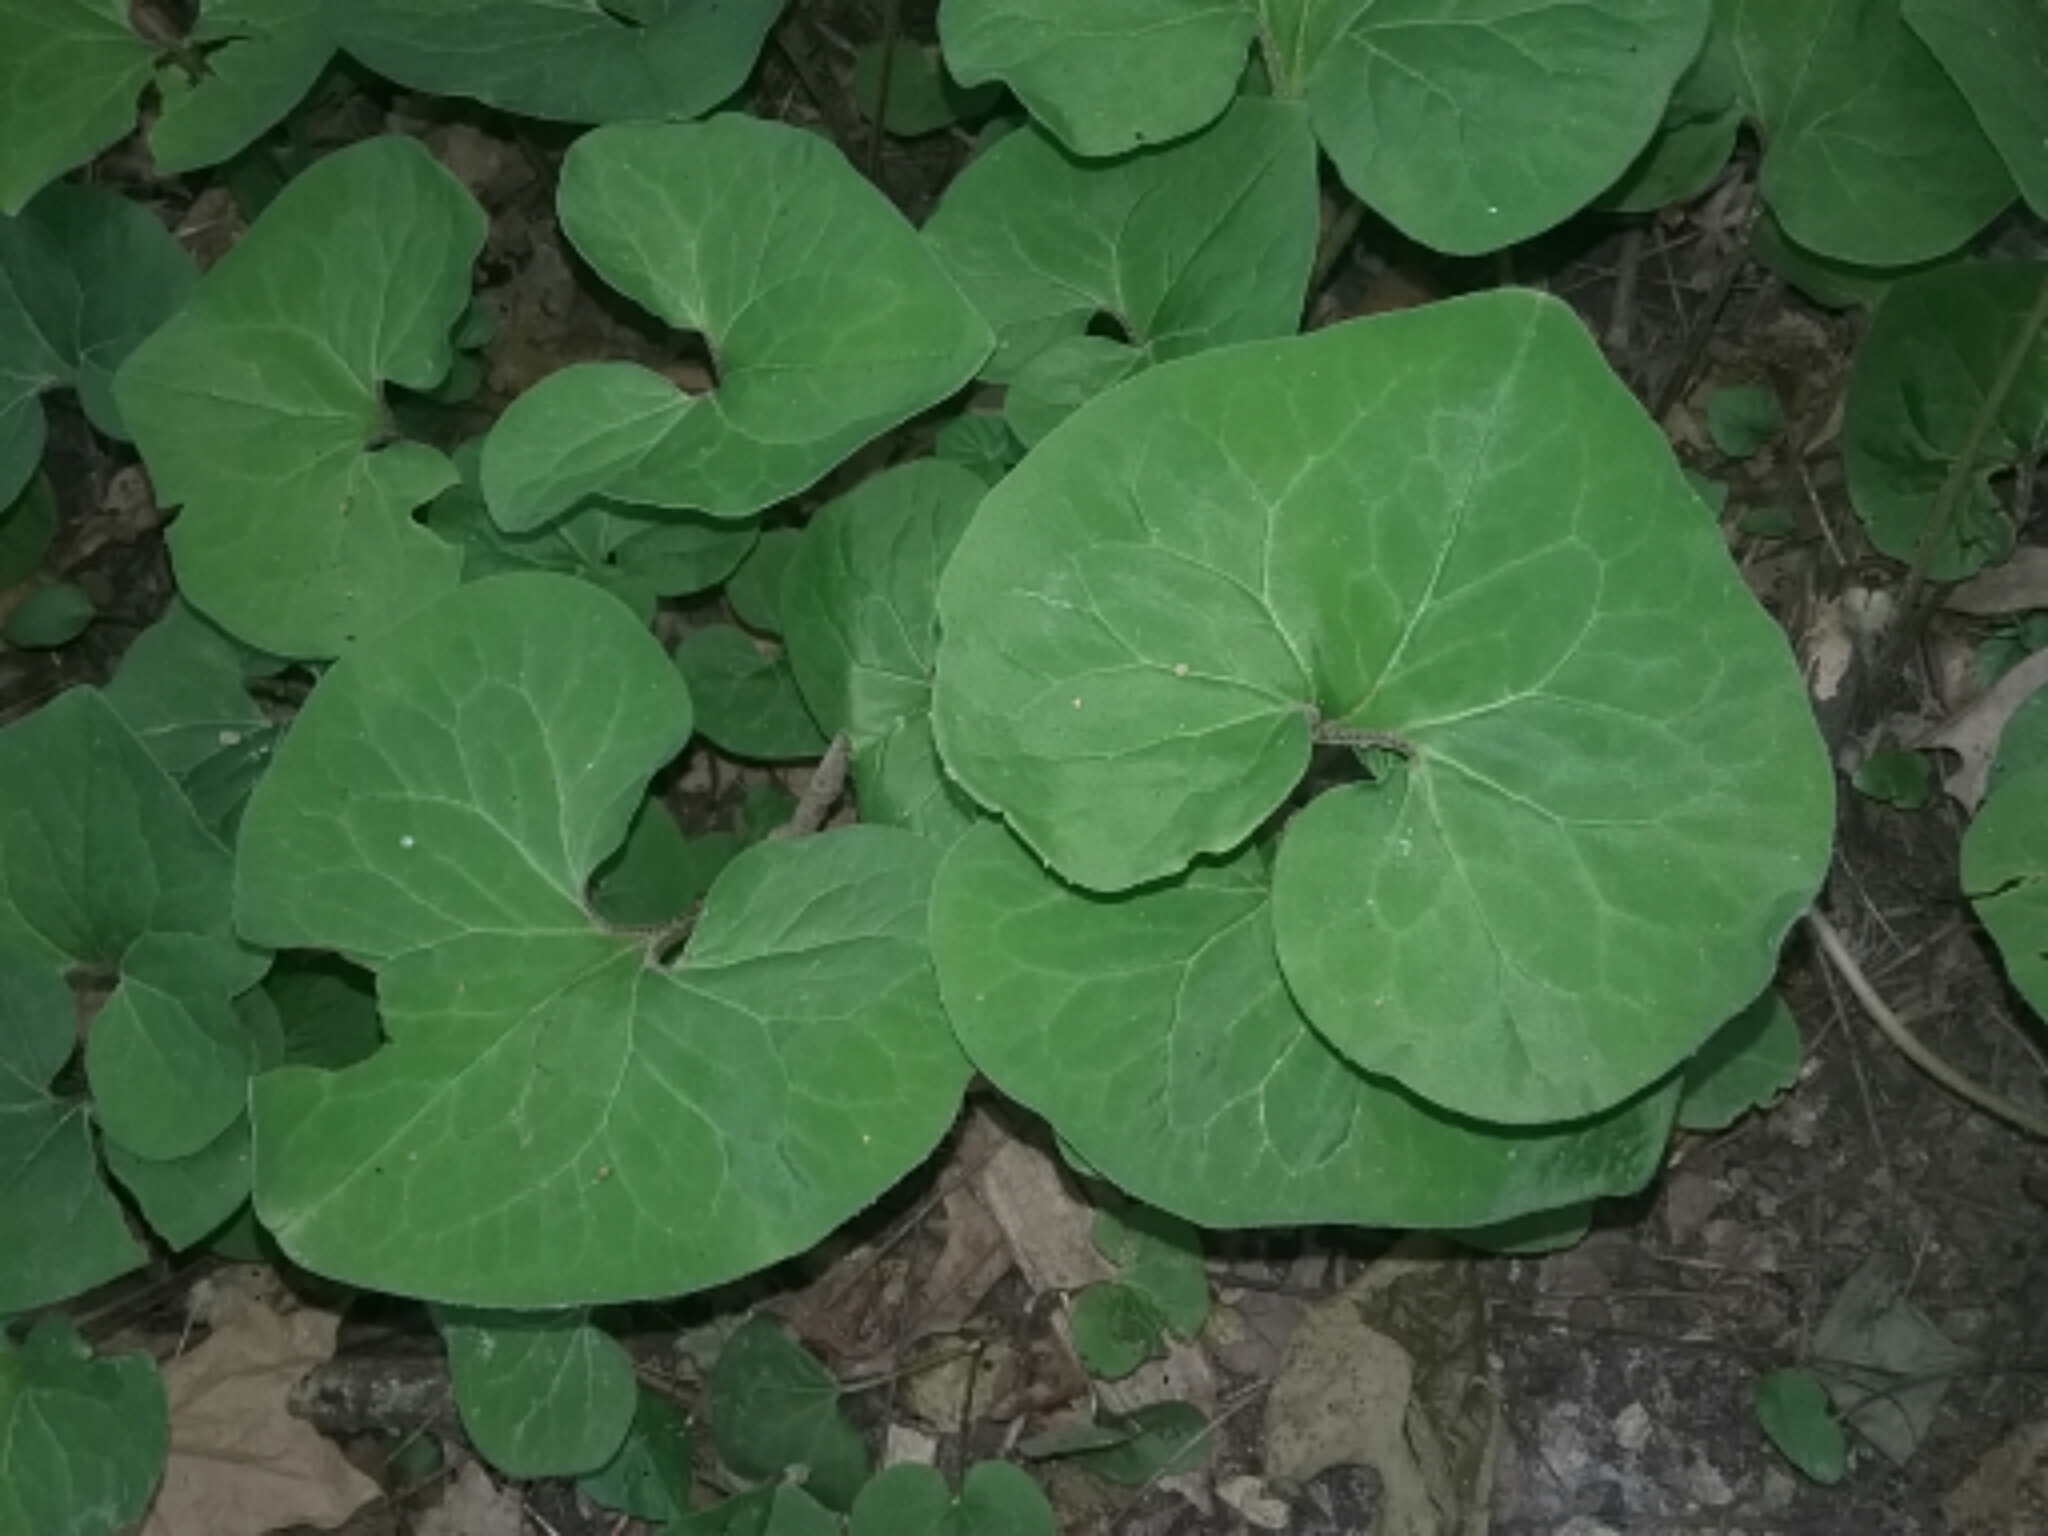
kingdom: Plantae
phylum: Tracheophyta
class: Magnoliopsida
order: Piperales
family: Aristolochiaceae
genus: Asarum
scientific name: Asarum canadense
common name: Wild ginger
